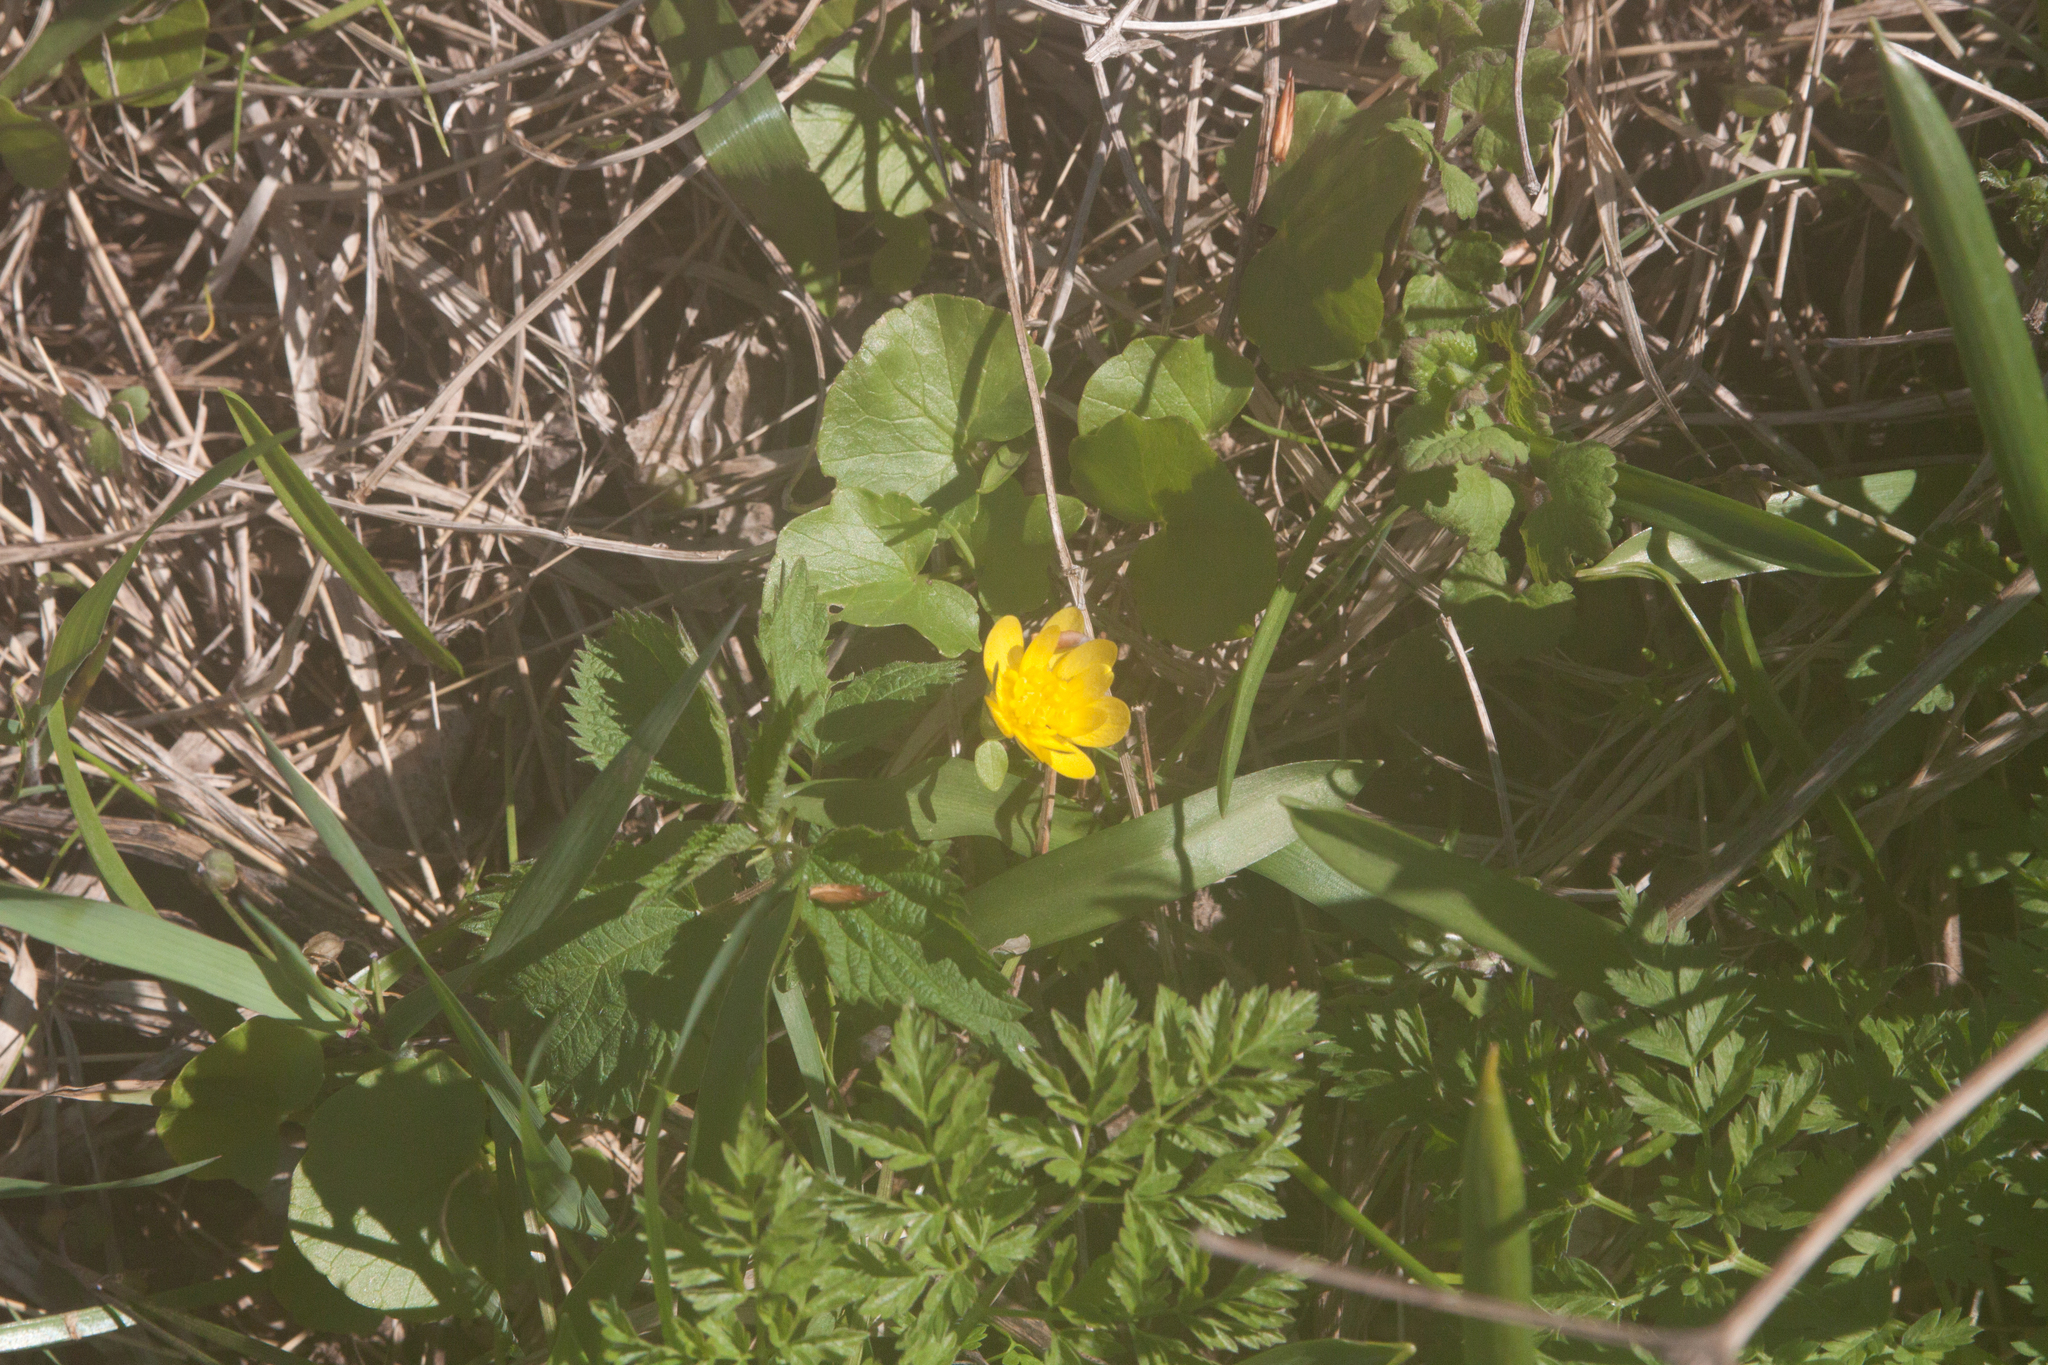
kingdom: Plantae
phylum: Tracheophyta
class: Magnoliopsida
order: Ranunculales
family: Ranunculaceae
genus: Ficaria
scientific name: Ficaria verna
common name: Lesser celandine
